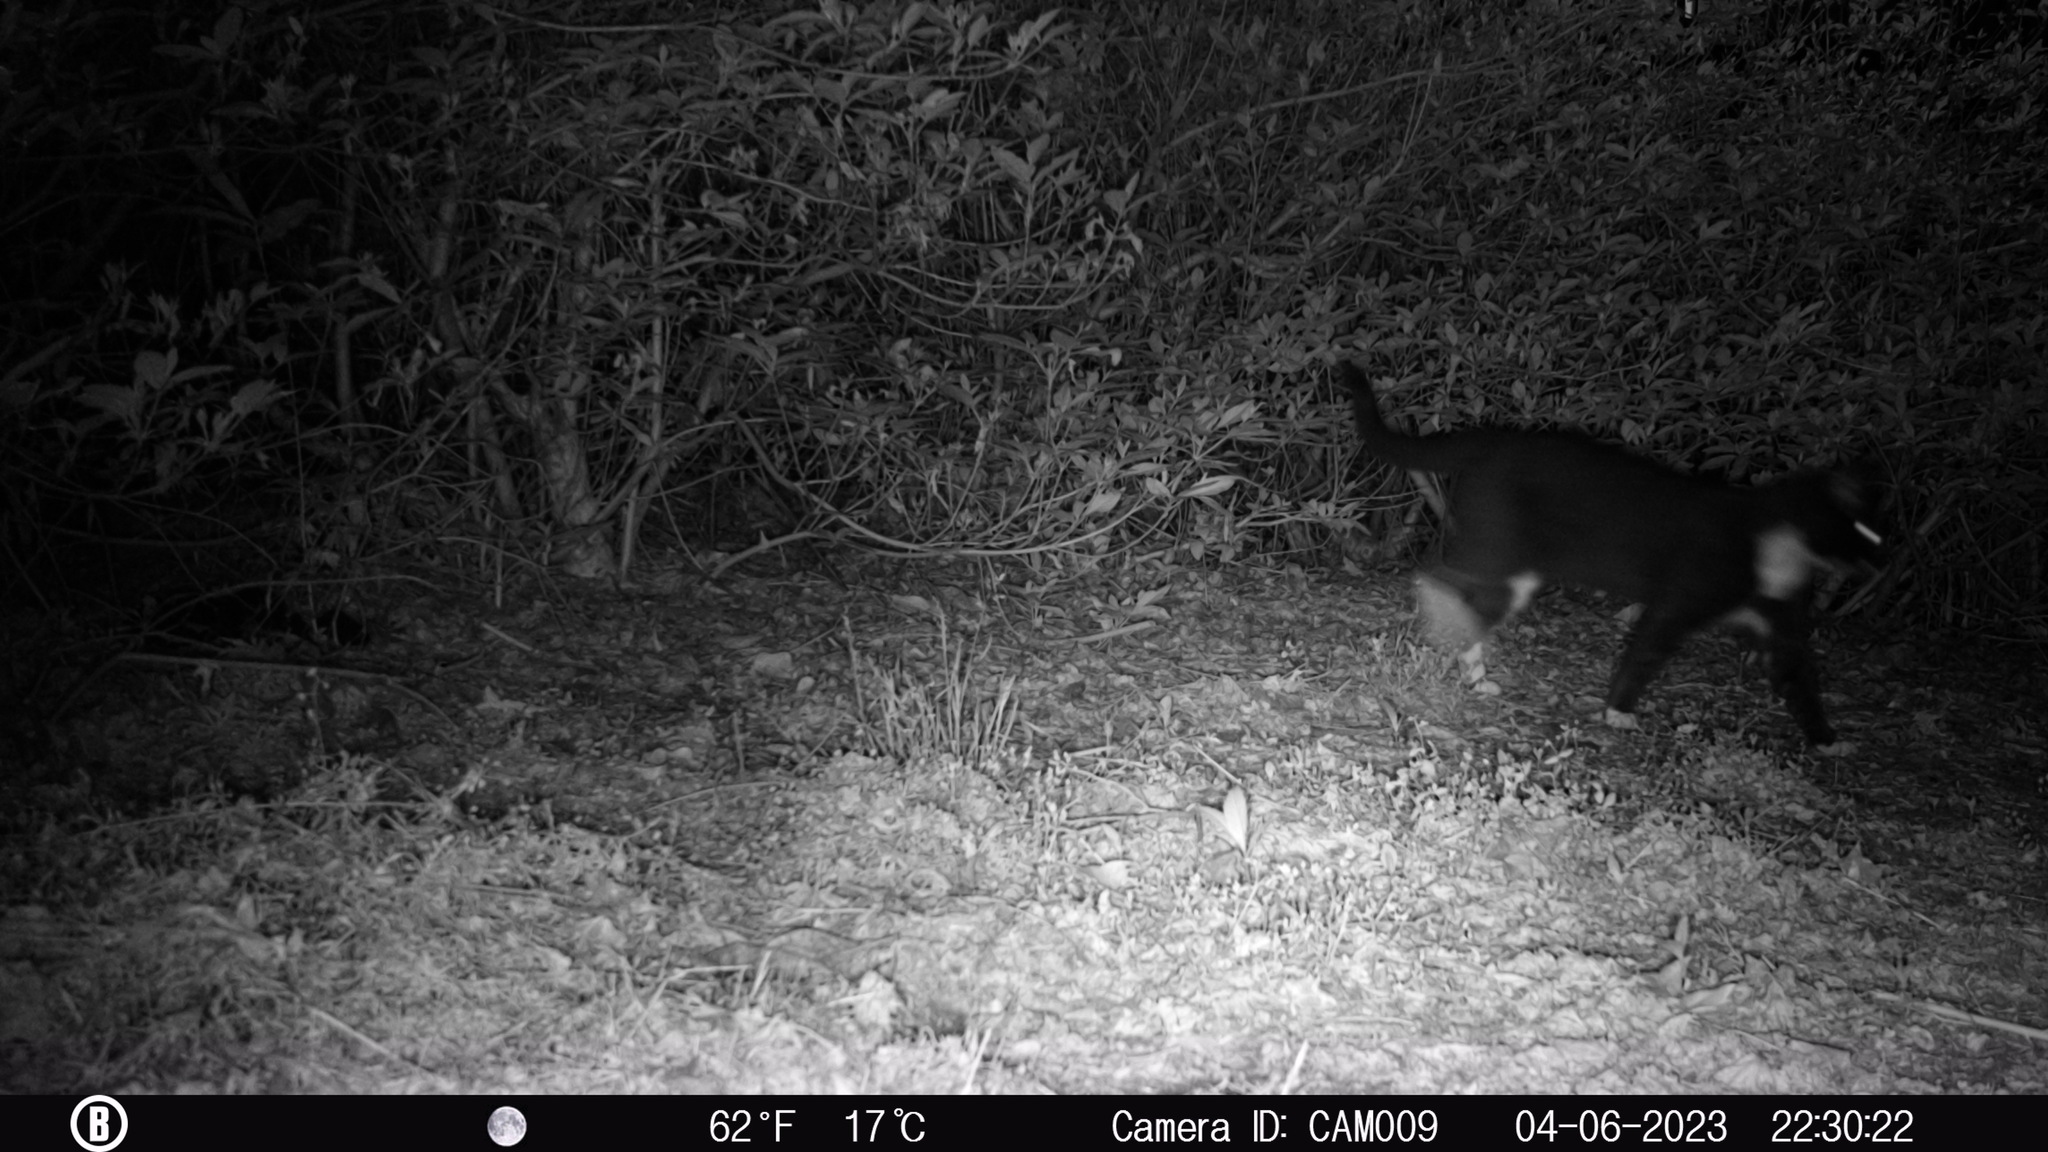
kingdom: Animalia
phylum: Chordata
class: Mammalia
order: Carnivora
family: Felidae
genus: Felis
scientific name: Felis catus
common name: Domestic cat
